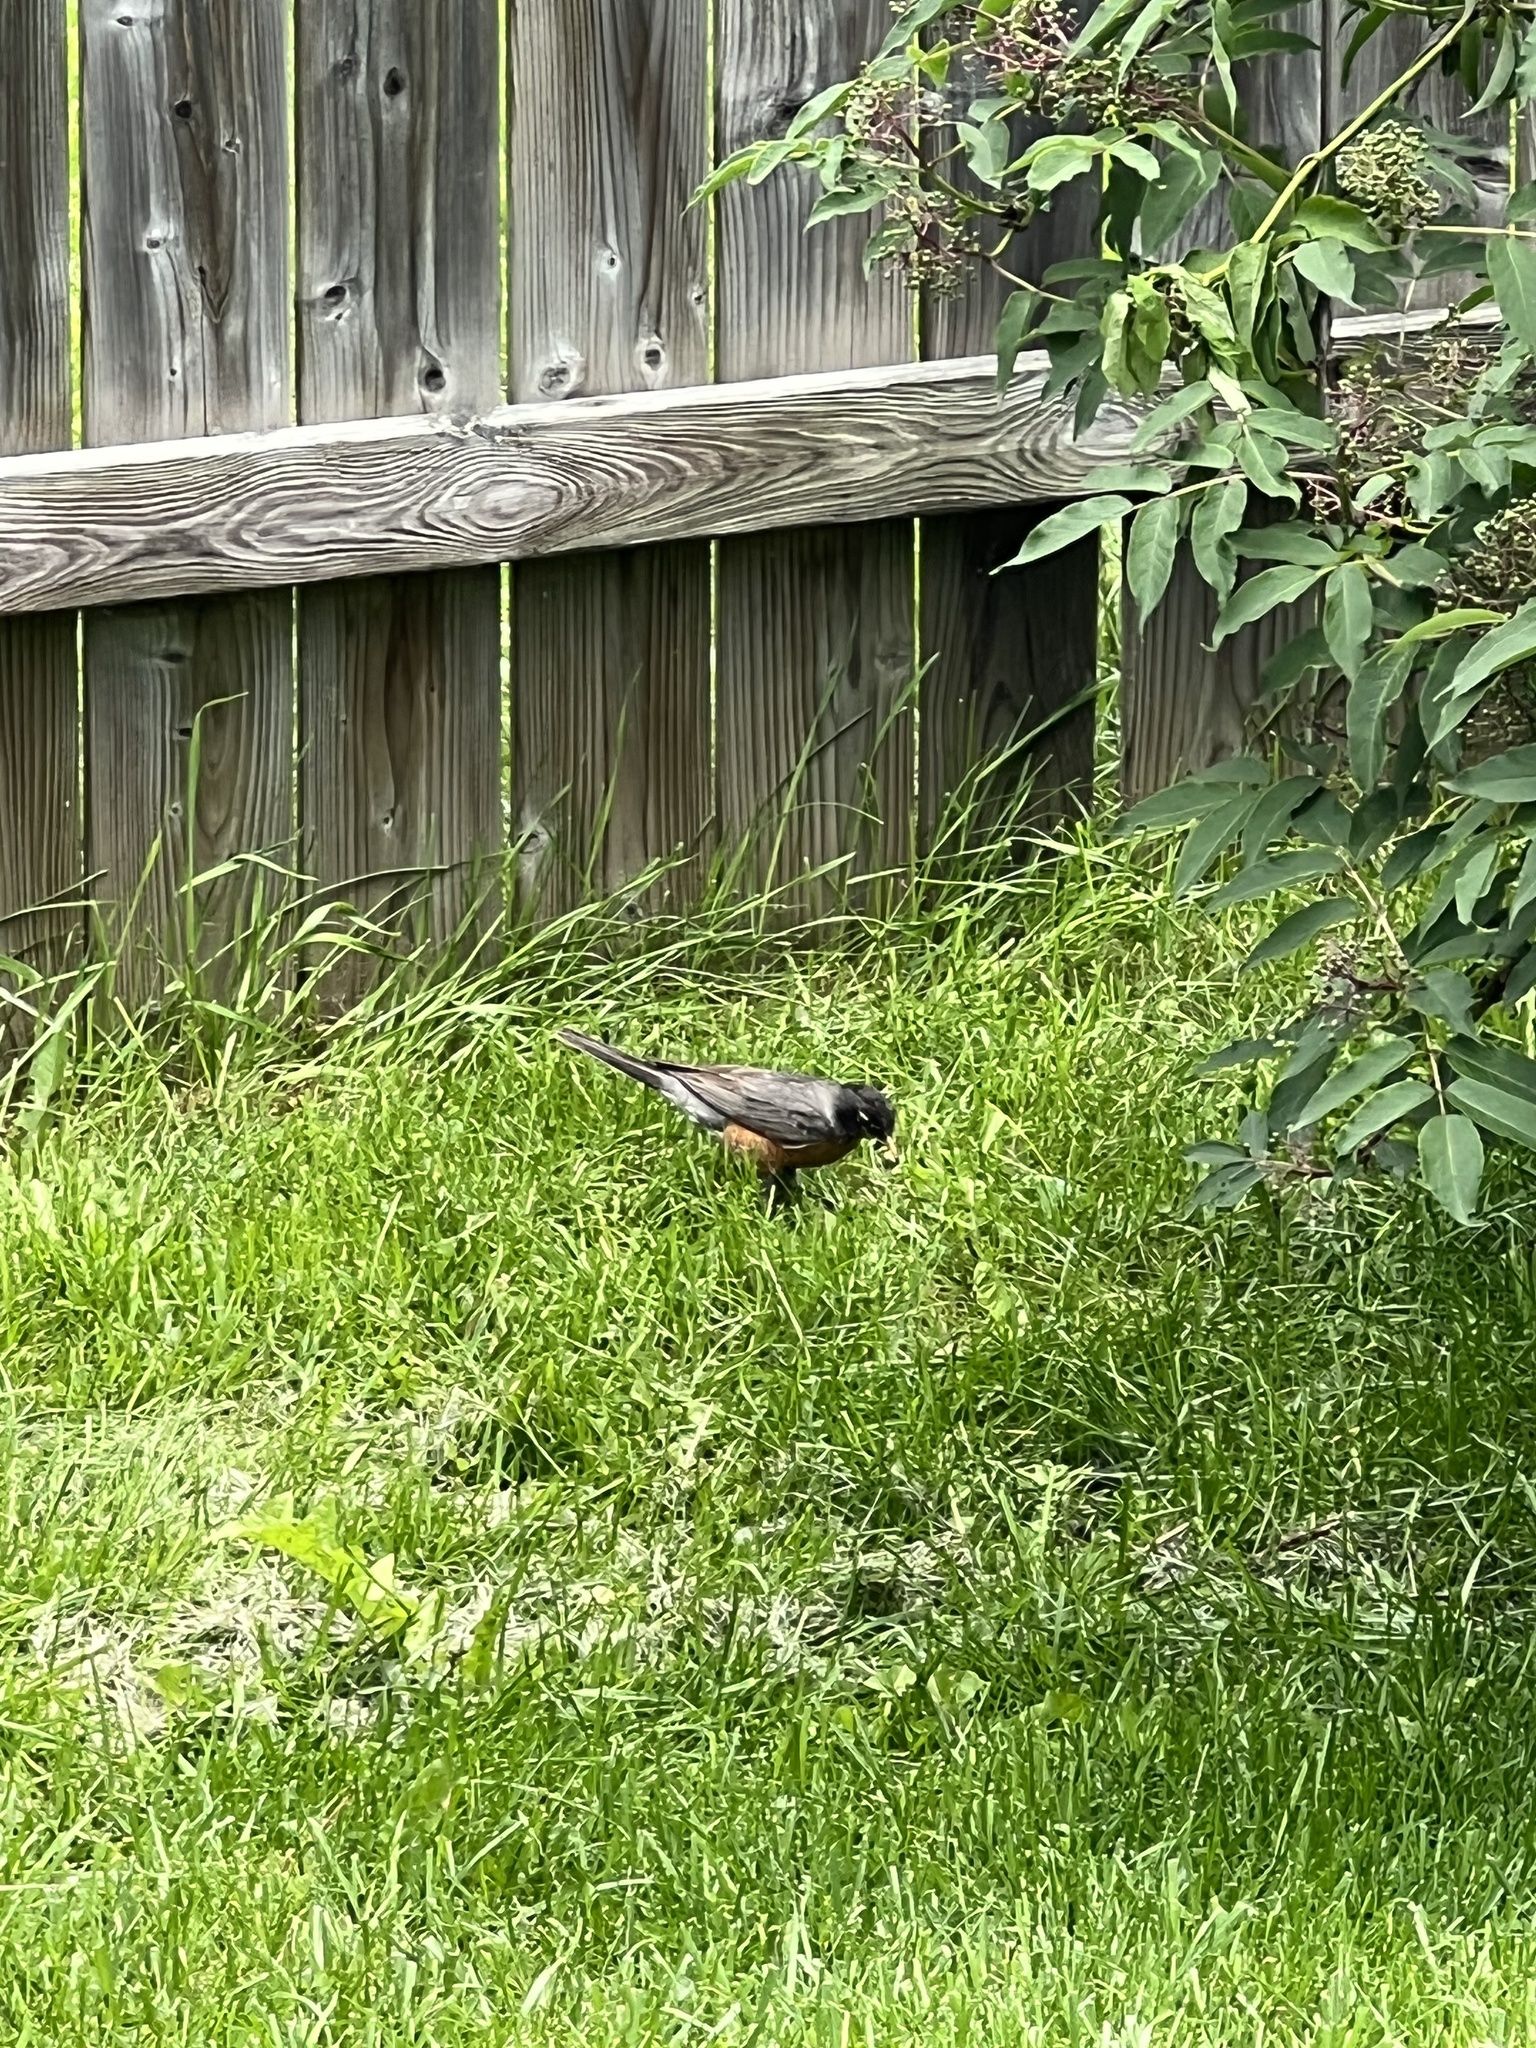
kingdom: Animalia
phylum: Chordata
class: Aves
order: Passeriformes
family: Turdidae
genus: Turdus
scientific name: Turdus migratorius
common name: American robin
